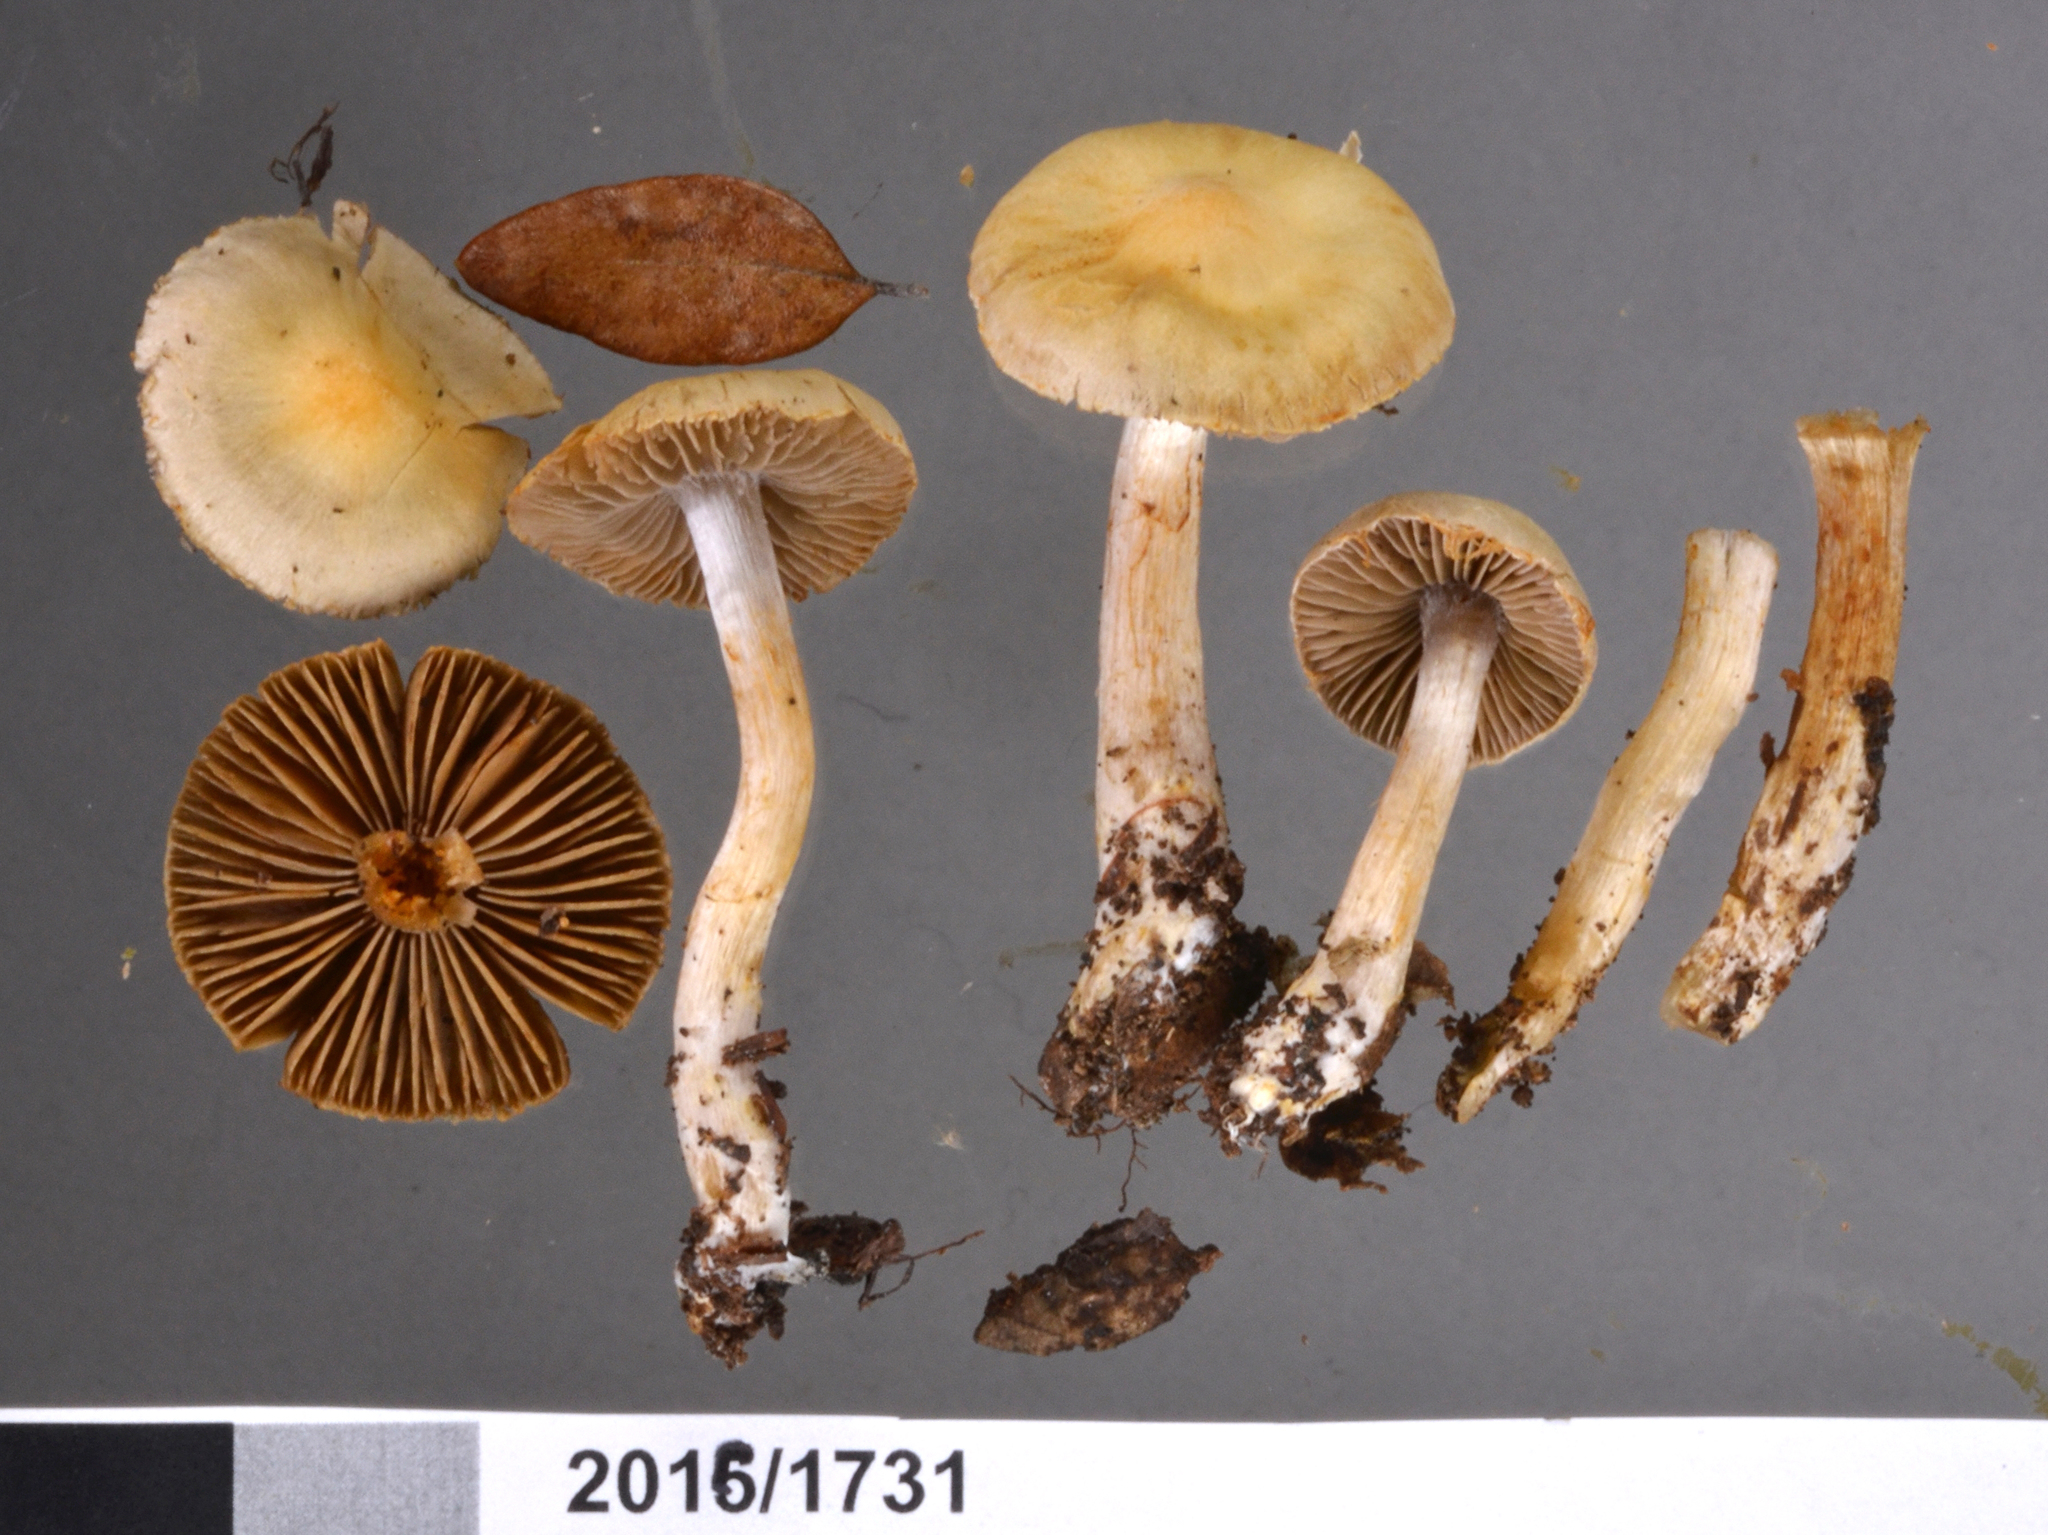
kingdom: Fungi
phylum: Basidiomycota
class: Agaricomycetes
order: Agaricales
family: Cortinariaceae
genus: Phlegmacium
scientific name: Phlegmacium rattinum
